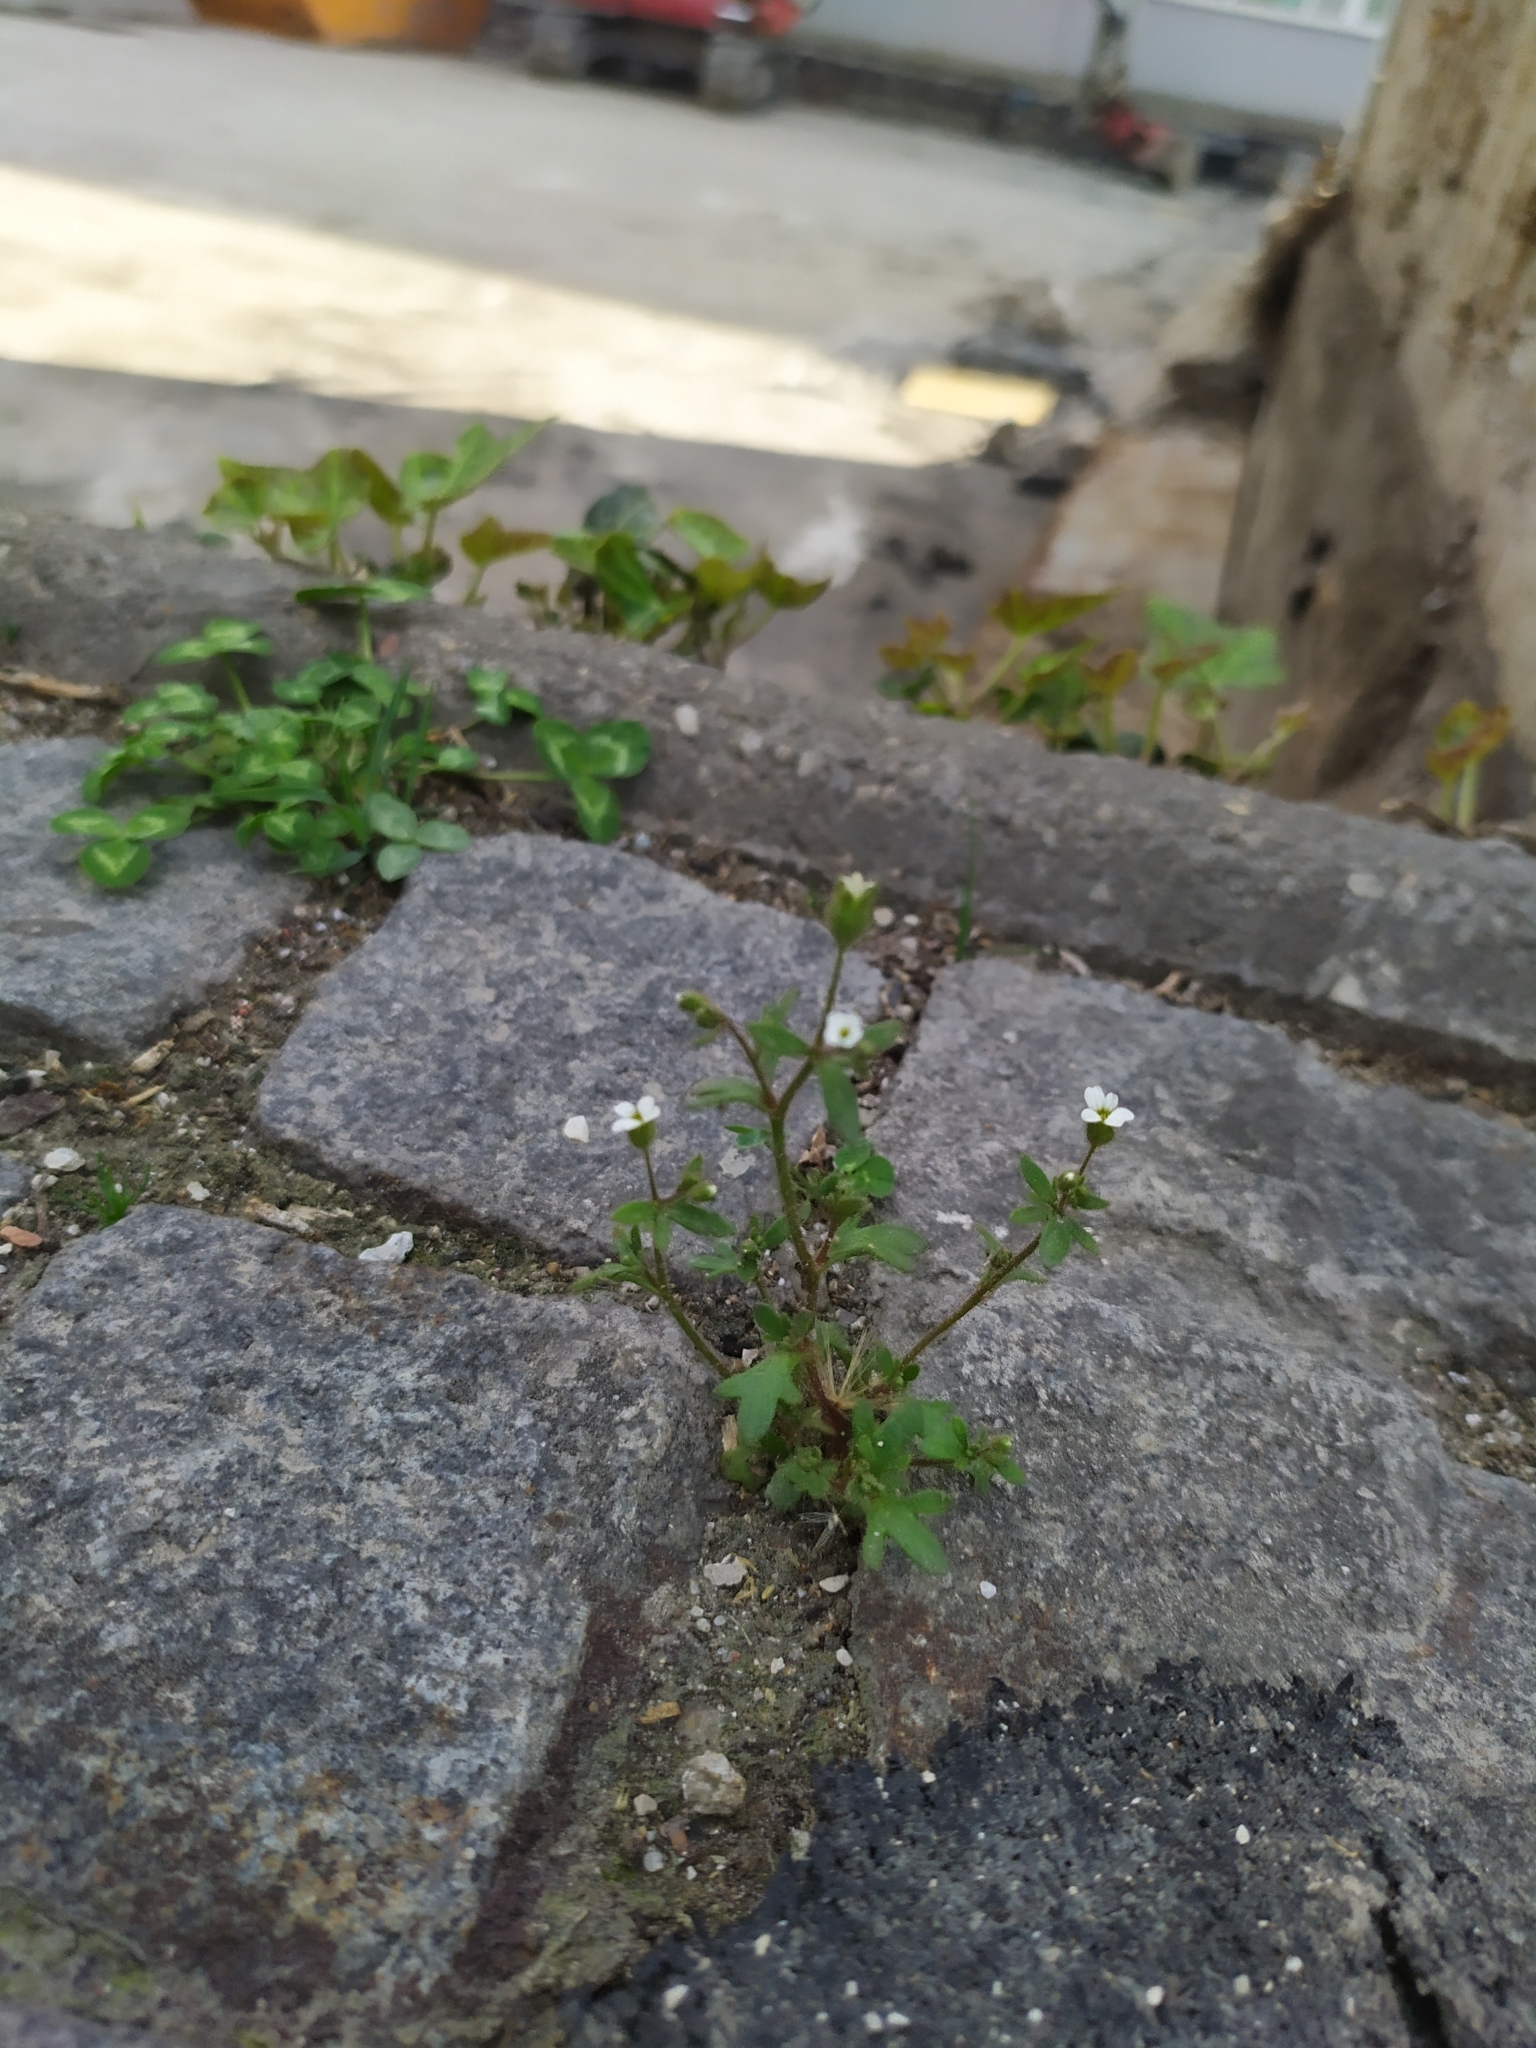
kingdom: Plantae
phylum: Tracheophyta
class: Magnoliopsida
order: Saxifragales
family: Saxifragaceae
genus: Saxifraga
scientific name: Saxifraga tridactylites
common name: Rue-leaved saxifrage
